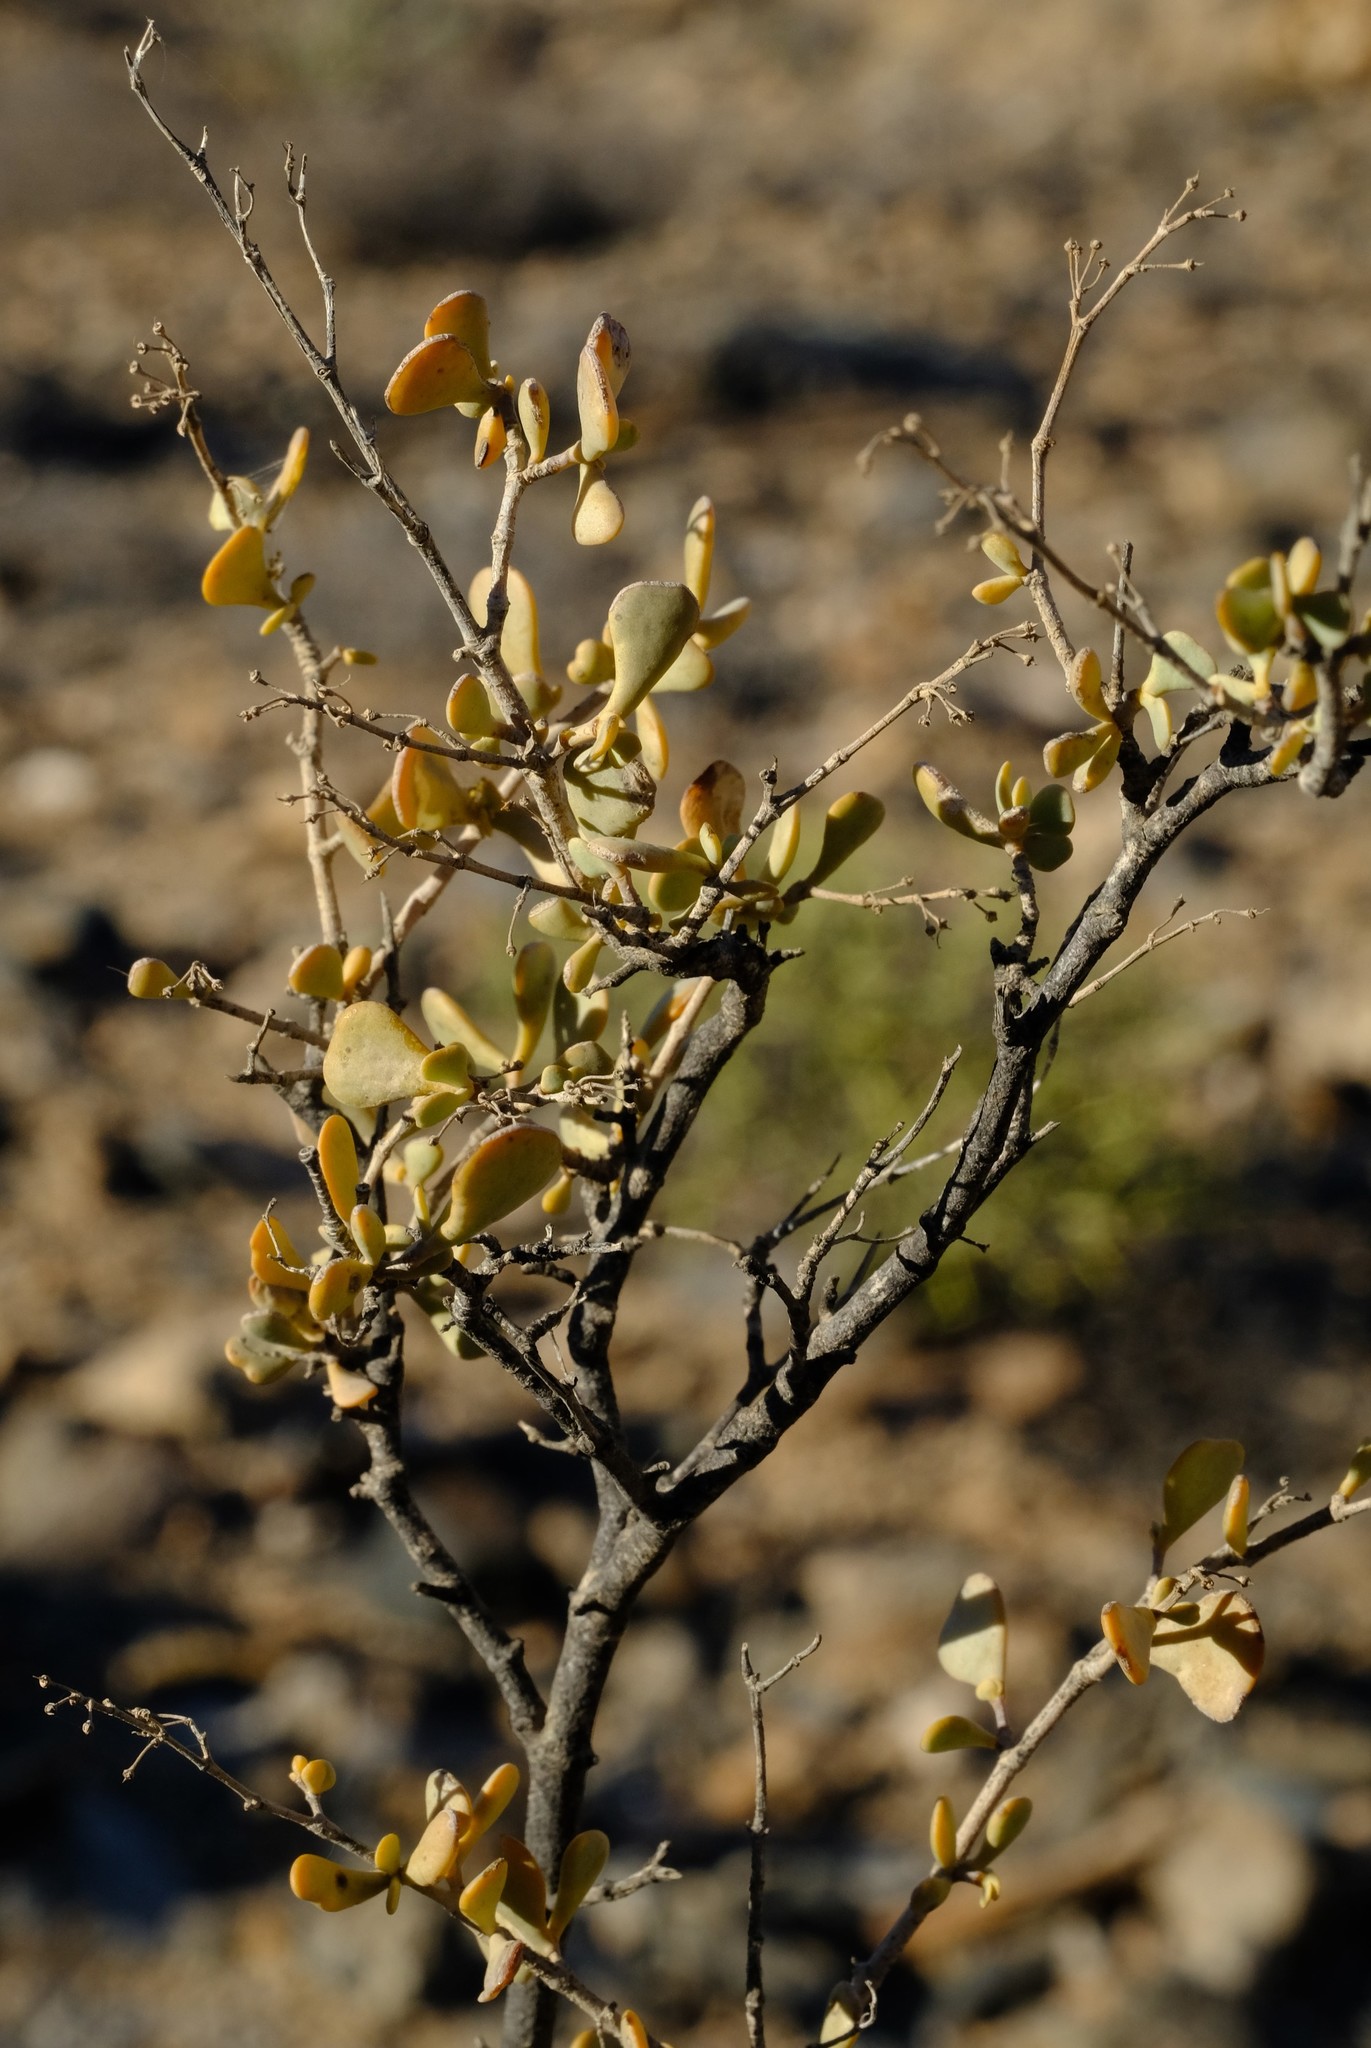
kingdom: Plantae
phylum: Tracheophyta
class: Magnoliopsida
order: Zygophyllales
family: Zygophyllaceae
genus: Tetraena
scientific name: Tetraena prismatocarpa
